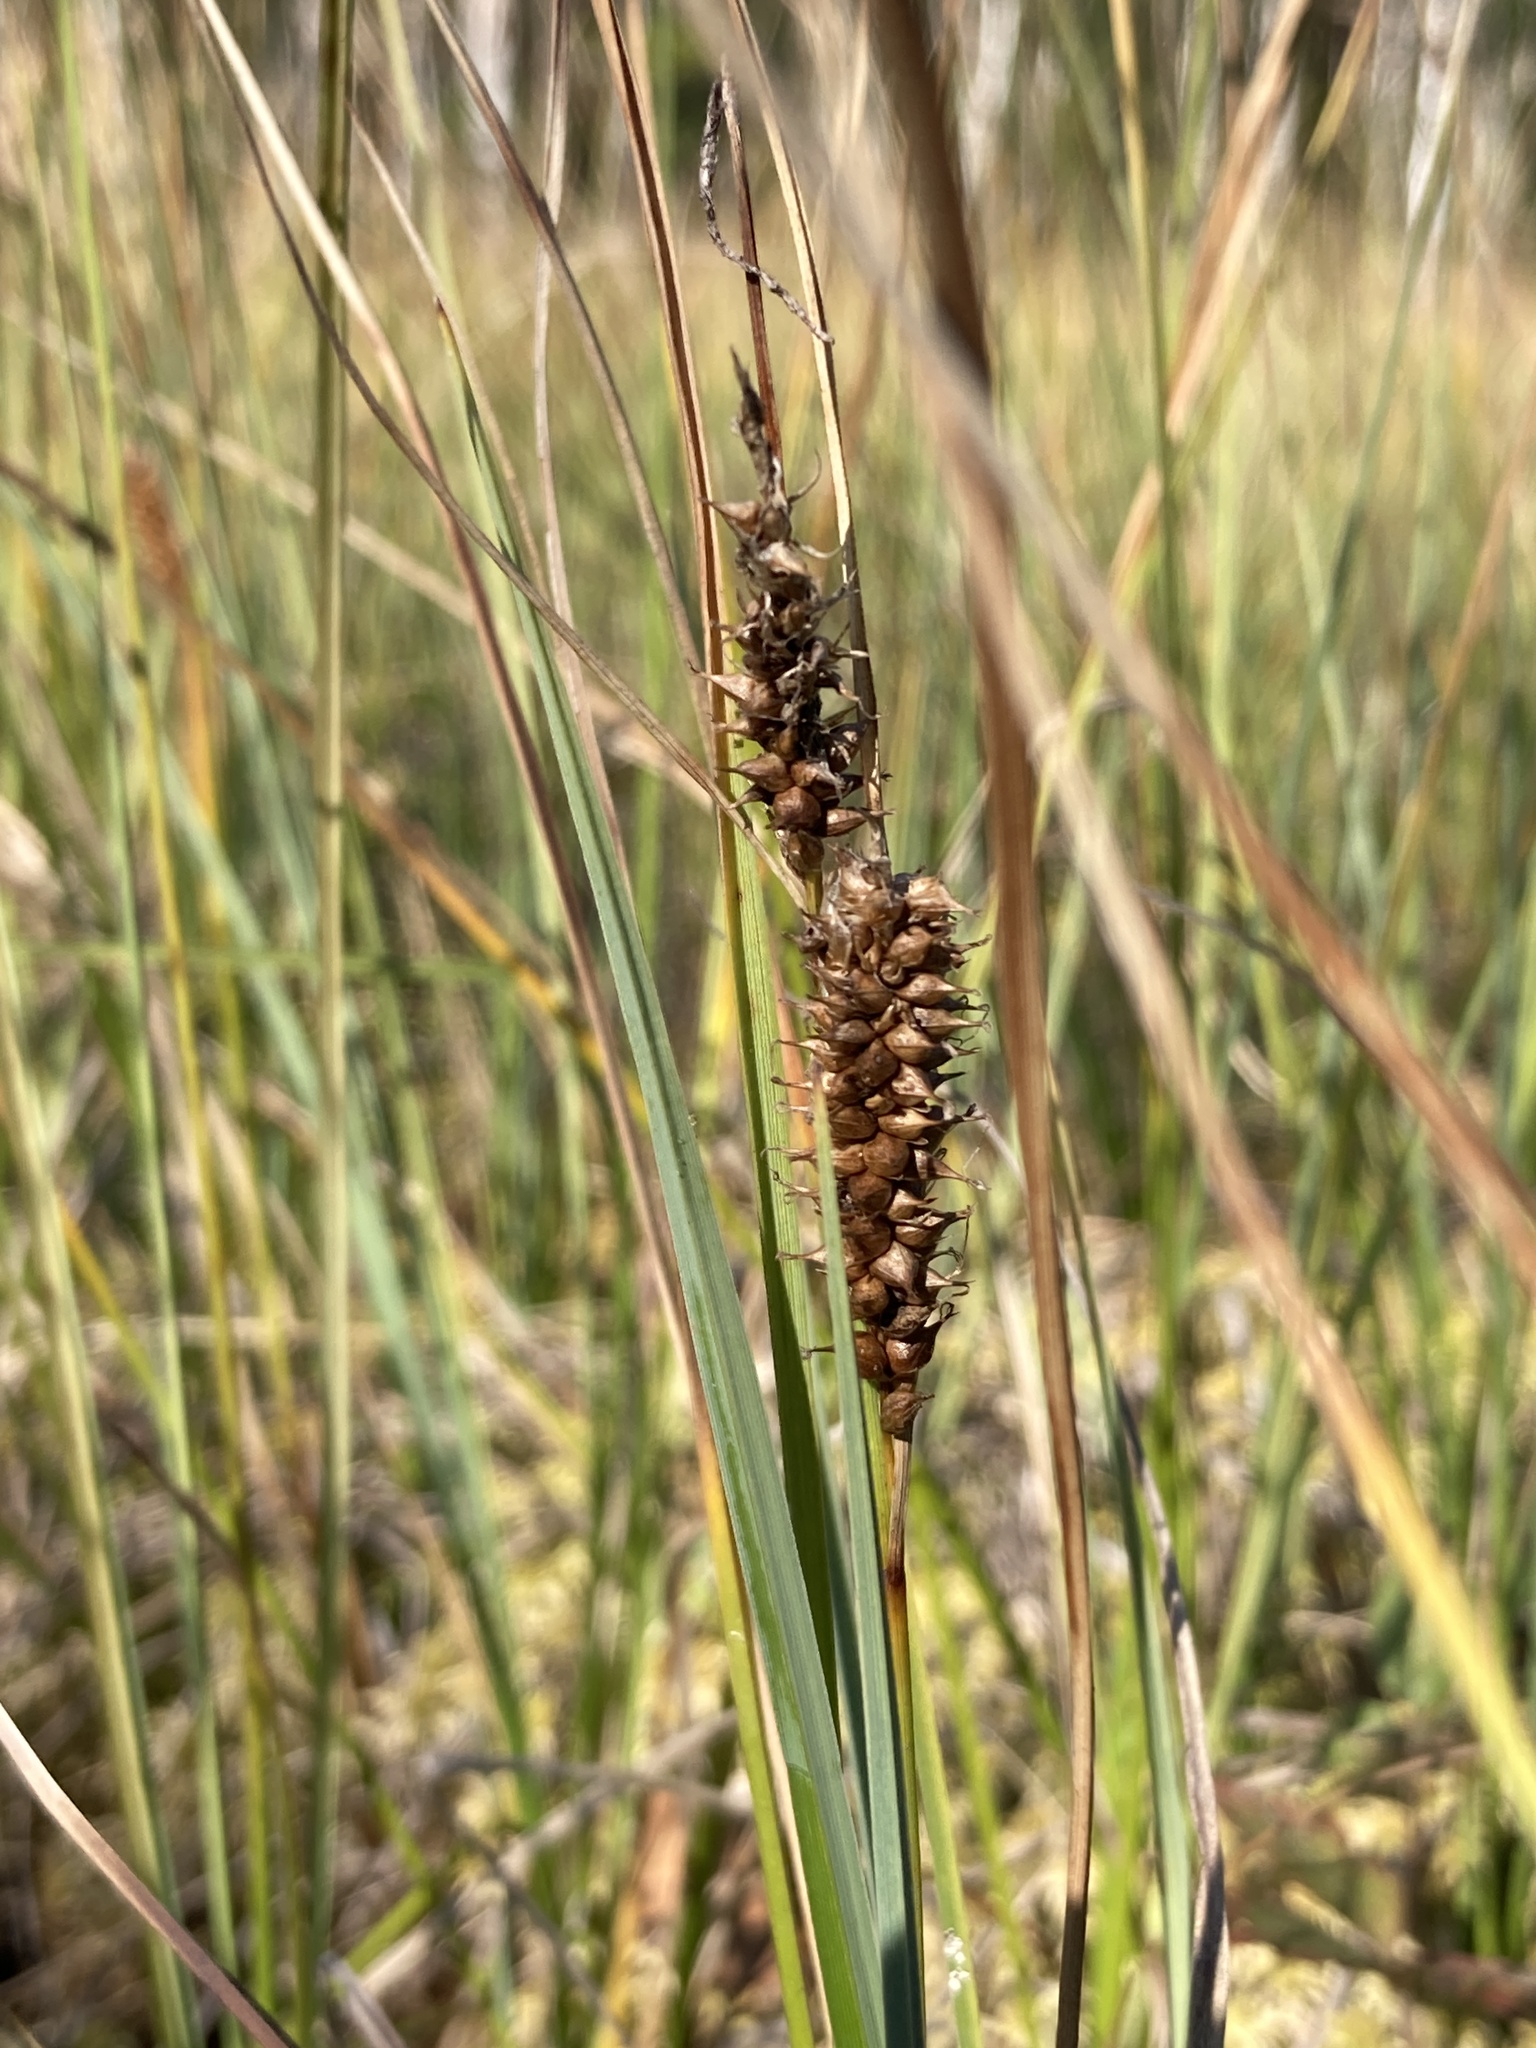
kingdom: Plantae
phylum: Tracheophyta
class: Liliopsida
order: Poales
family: Cyperaceae
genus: Carex
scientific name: Carex rostrata
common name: Bottle sedge
